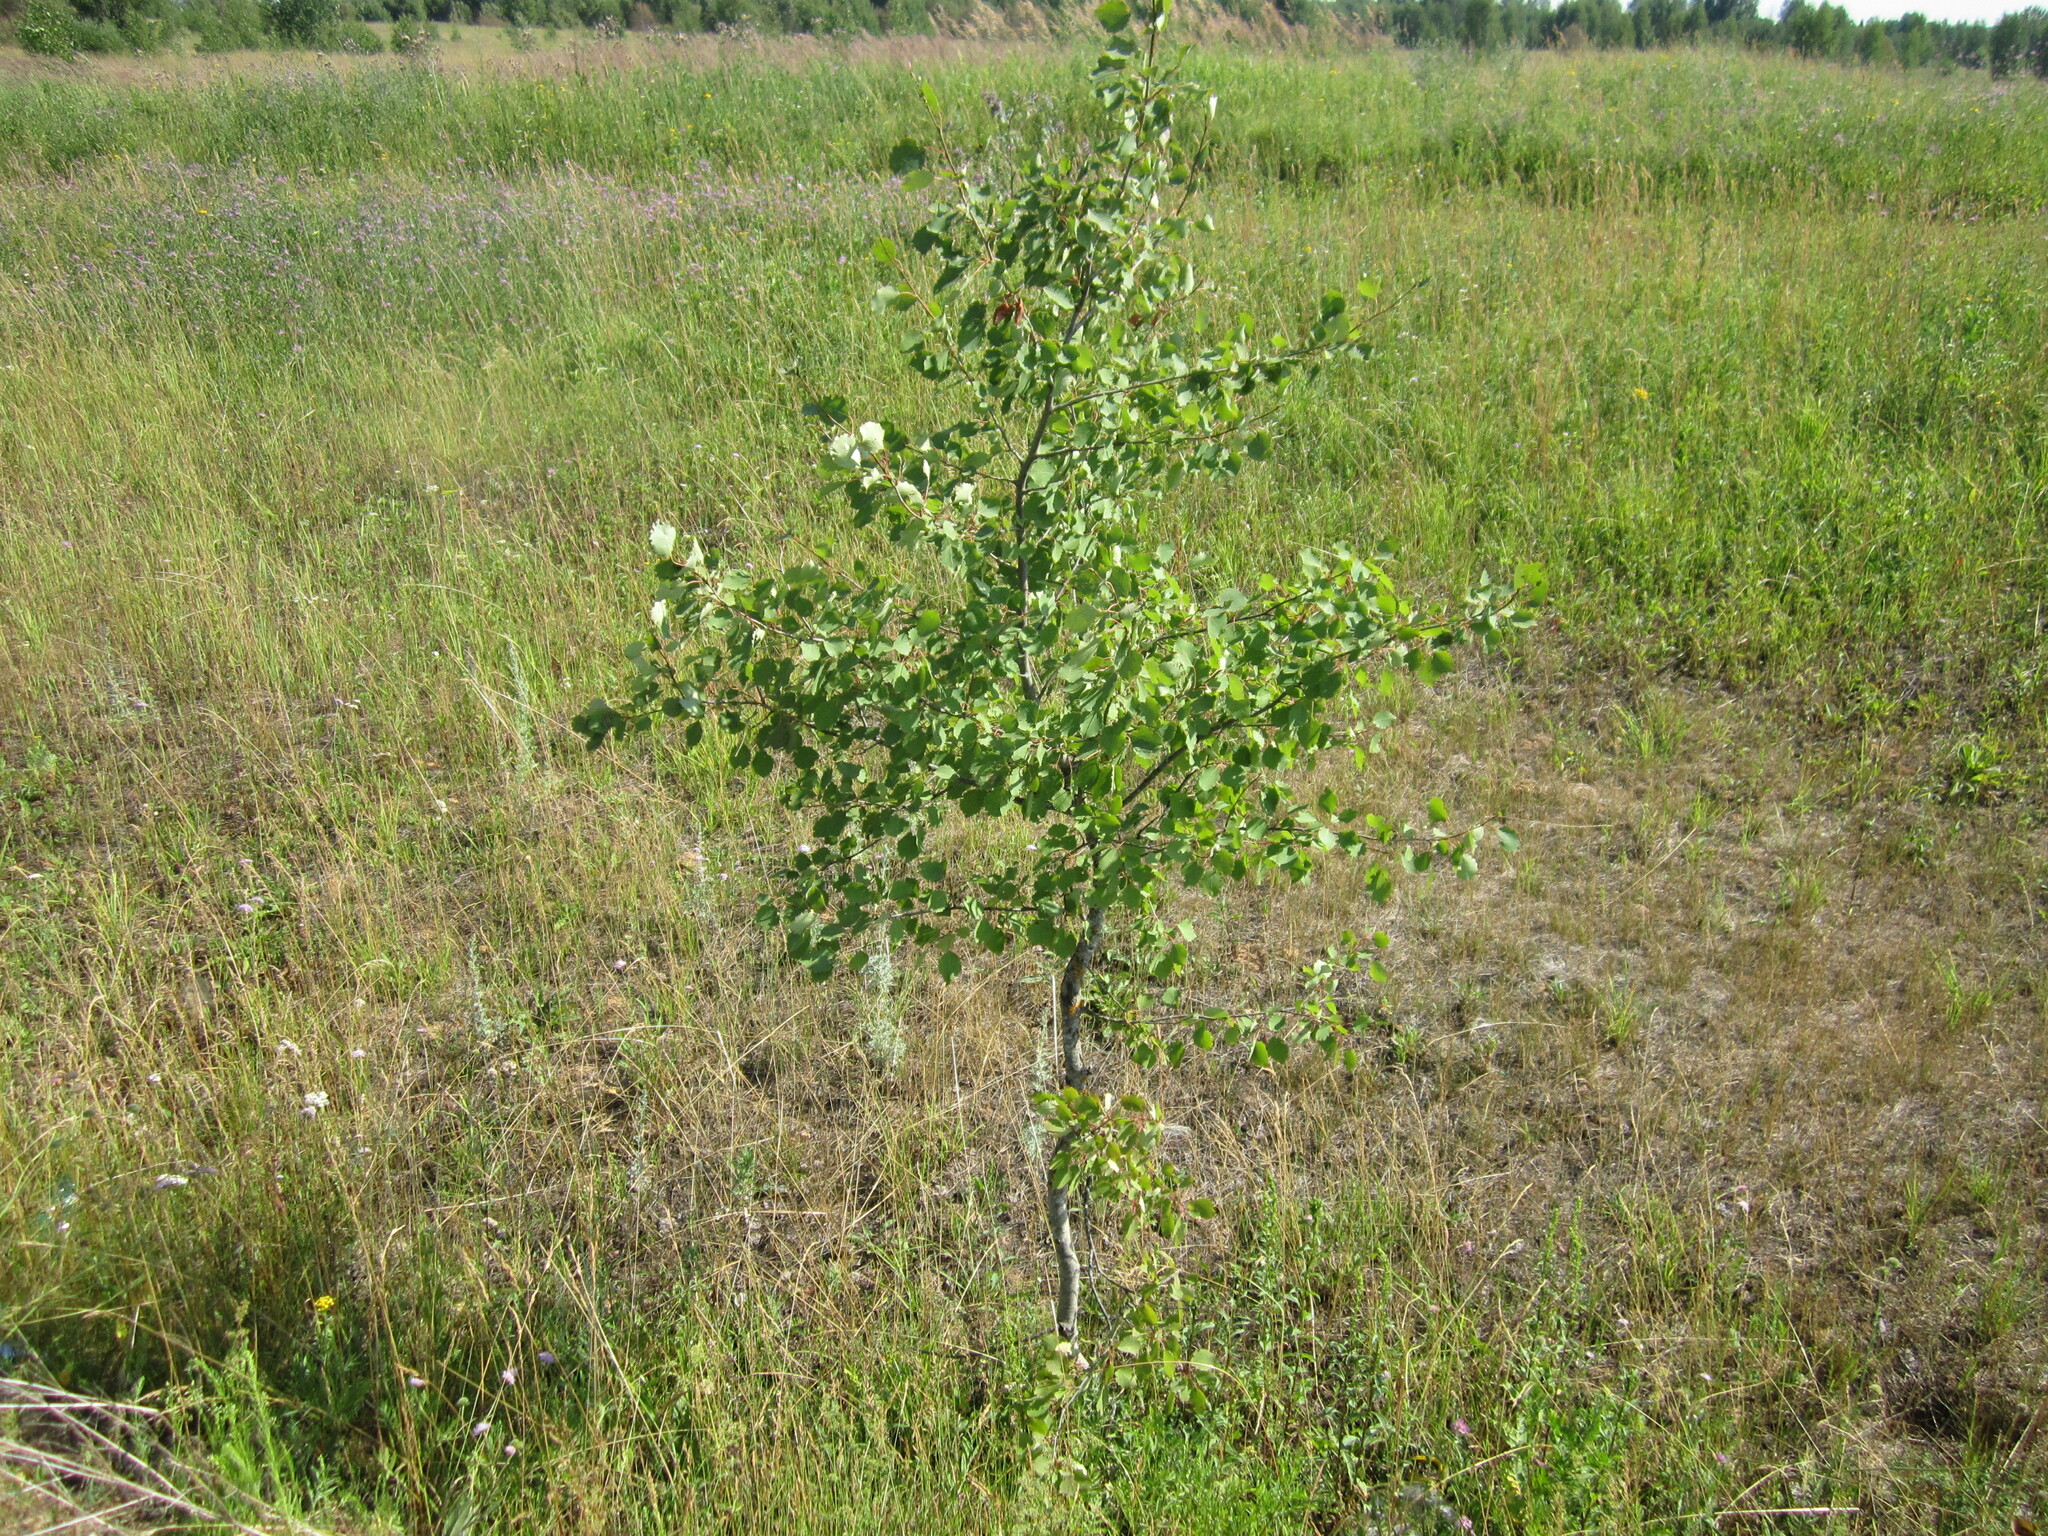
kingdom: Plantae
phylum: Tracheophyta
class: Magnoliopsida
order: Malpighiales
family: Salicaceae
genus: Populus
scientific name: Populus tremula
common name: European aspen
